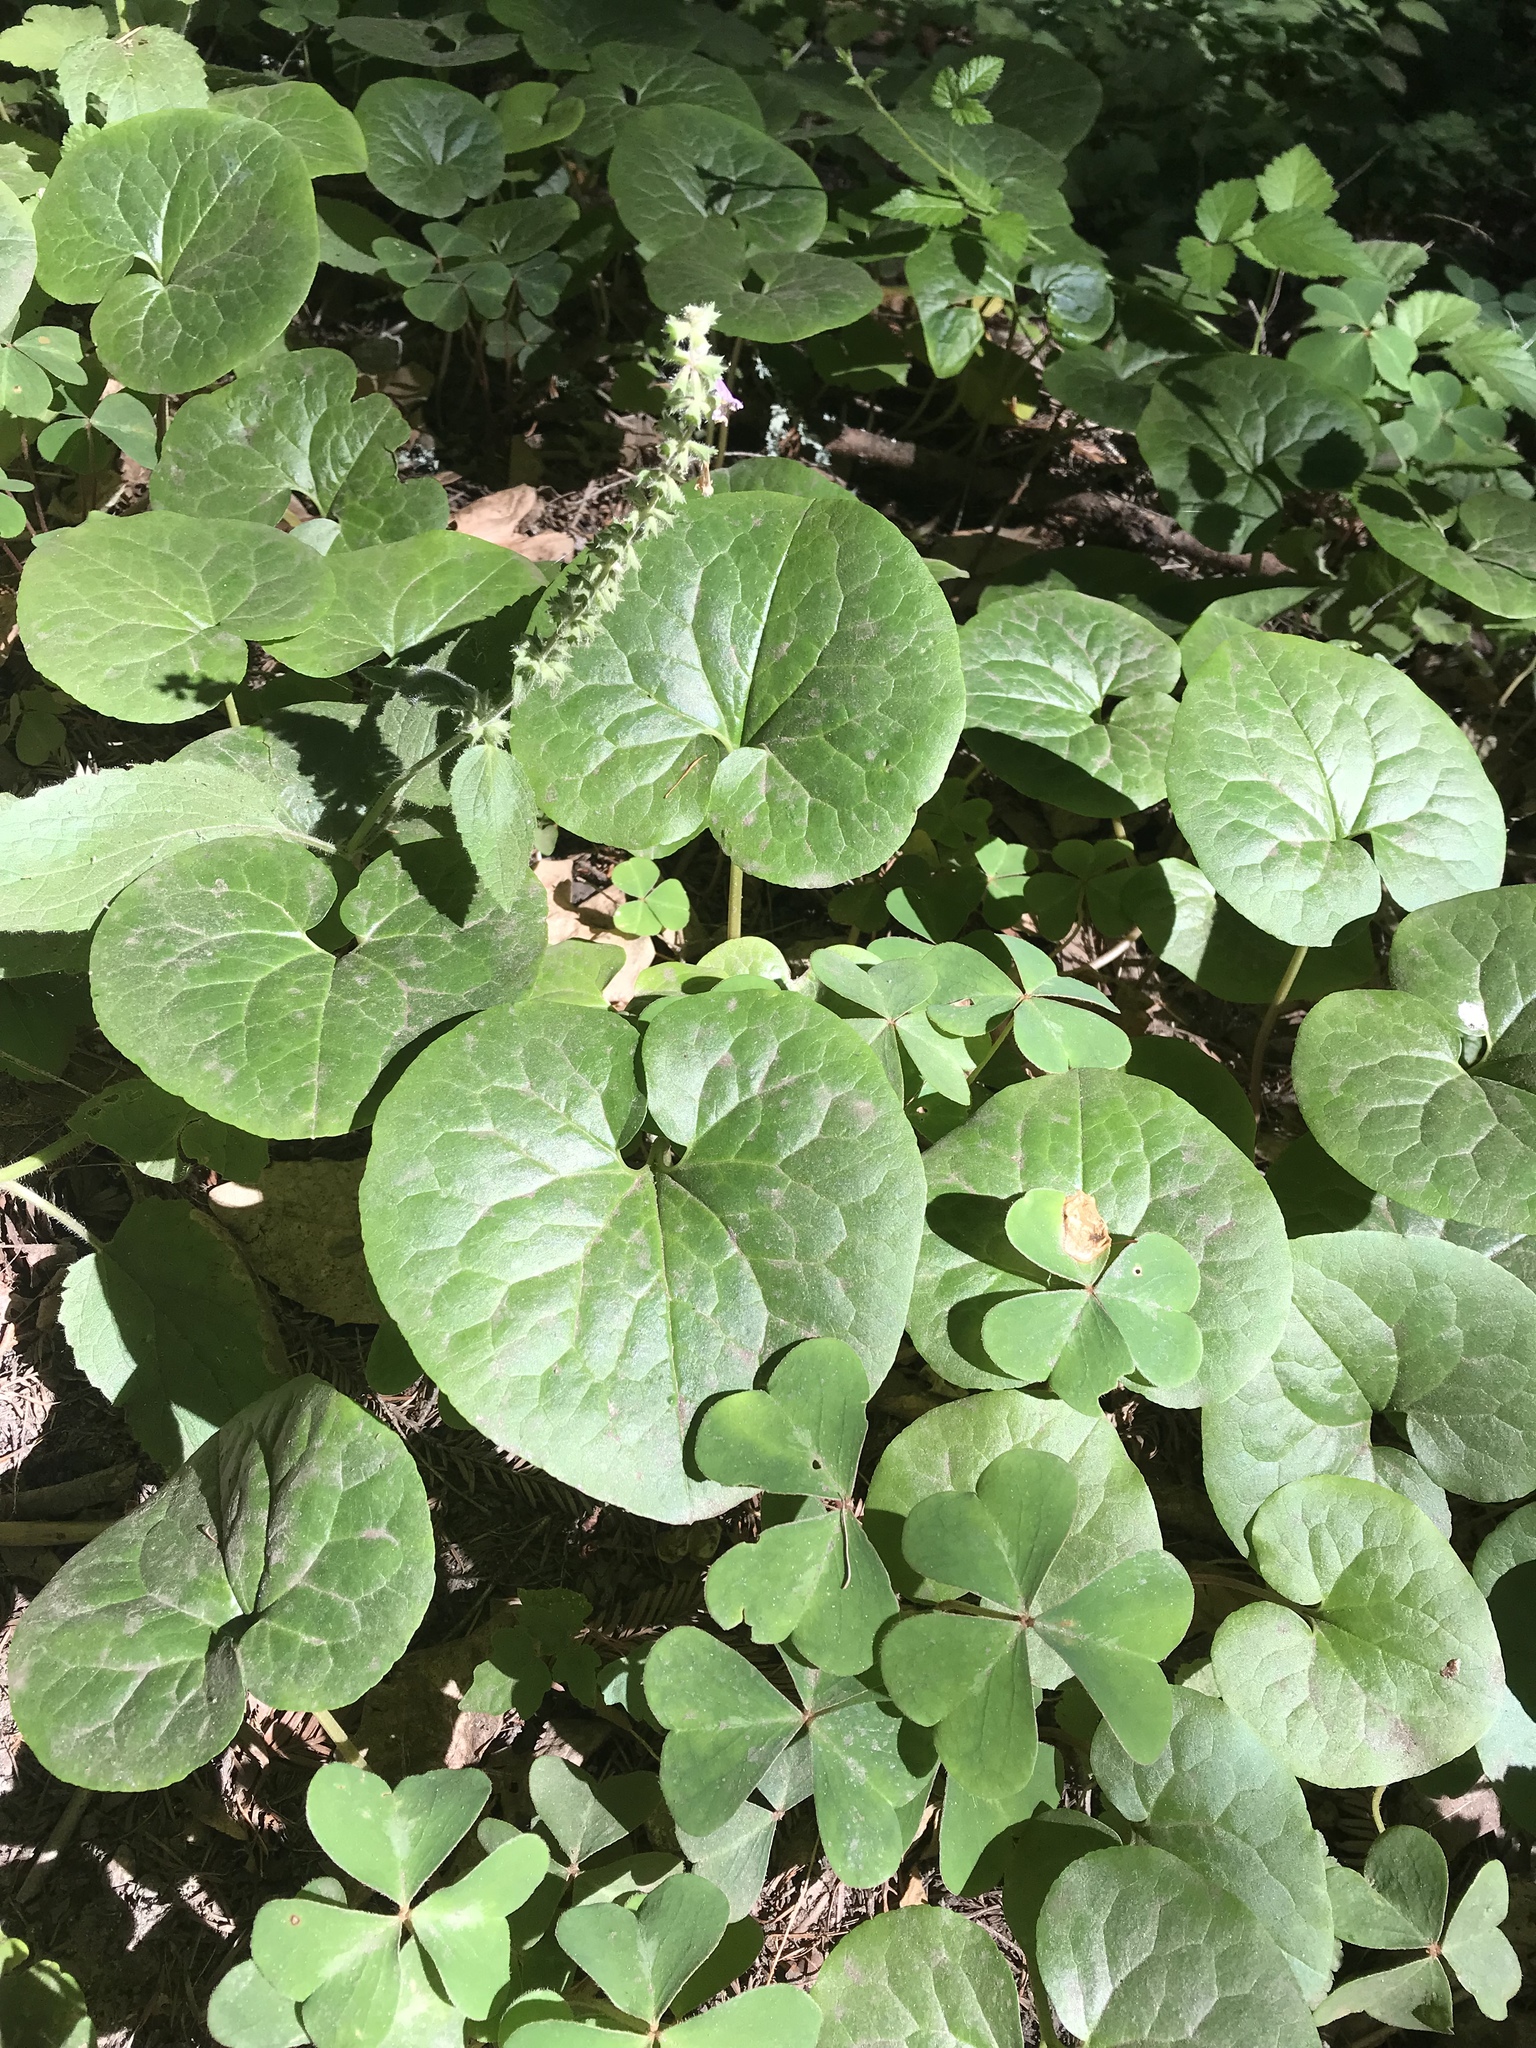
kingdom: Plantae
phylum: Tracheophyta
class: Magnoliopsida
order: Piperales
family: Aristolochiaceae
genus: Asarum
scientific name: Asarum caudatum
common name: Wild ginger
